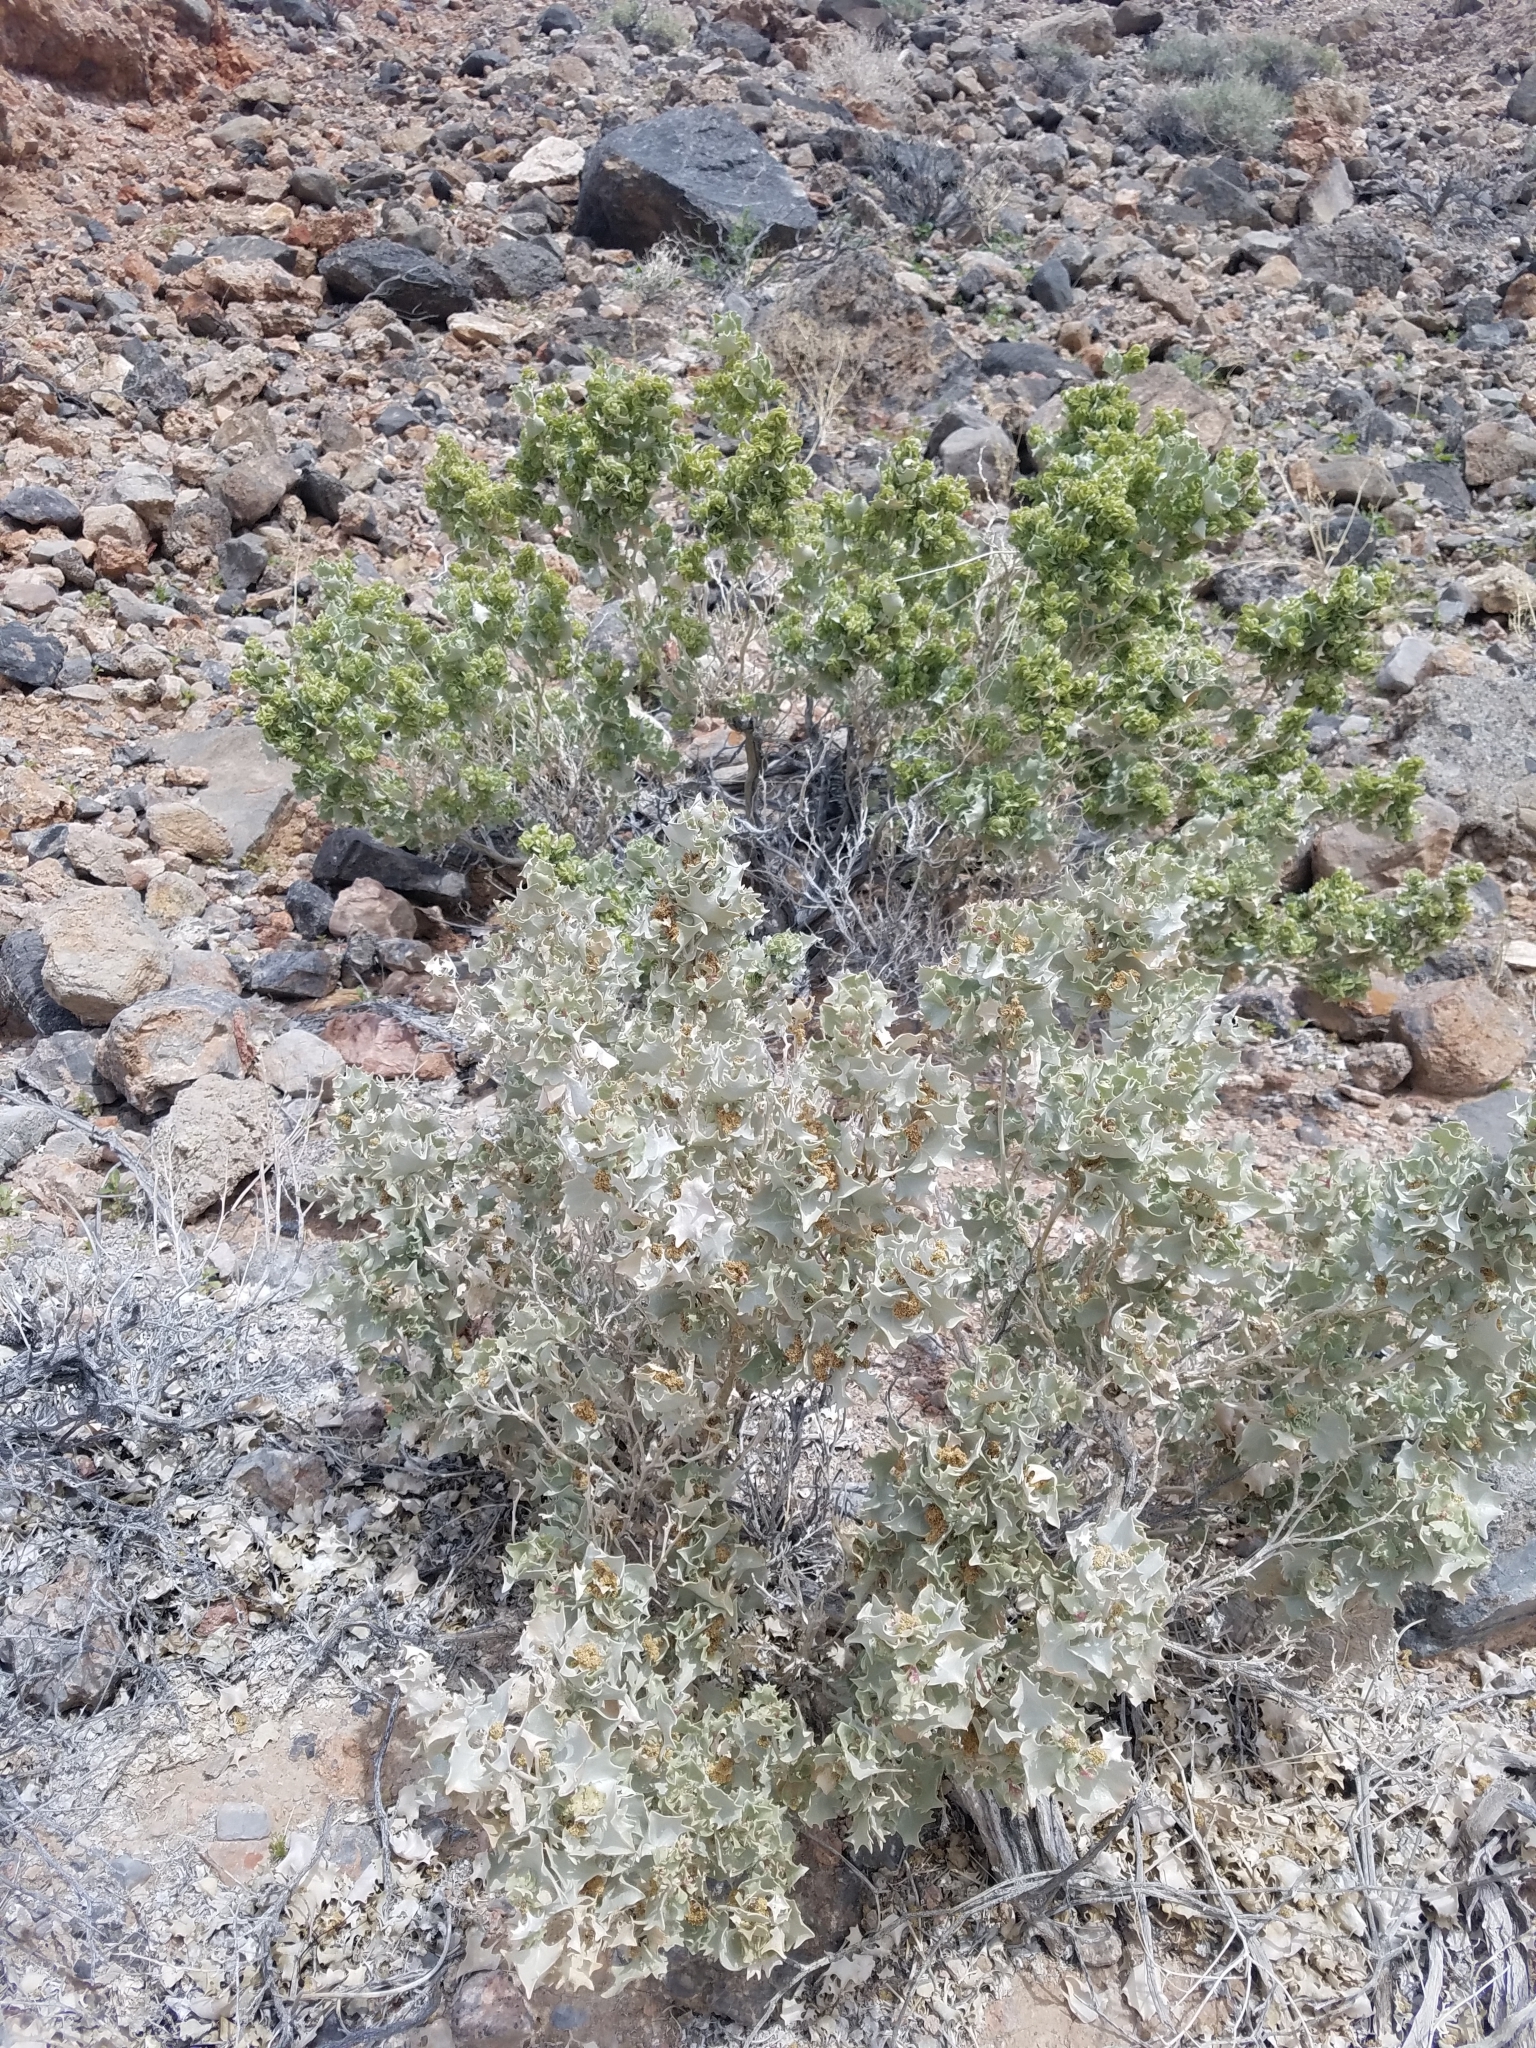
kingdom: Plantae
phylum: Tracheophyta
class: Magnoliopsida
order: Caryophyllales
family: Amaranthaceae
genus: Atriplex
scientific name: Atriplex hymenelytra
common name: Desert-holly
